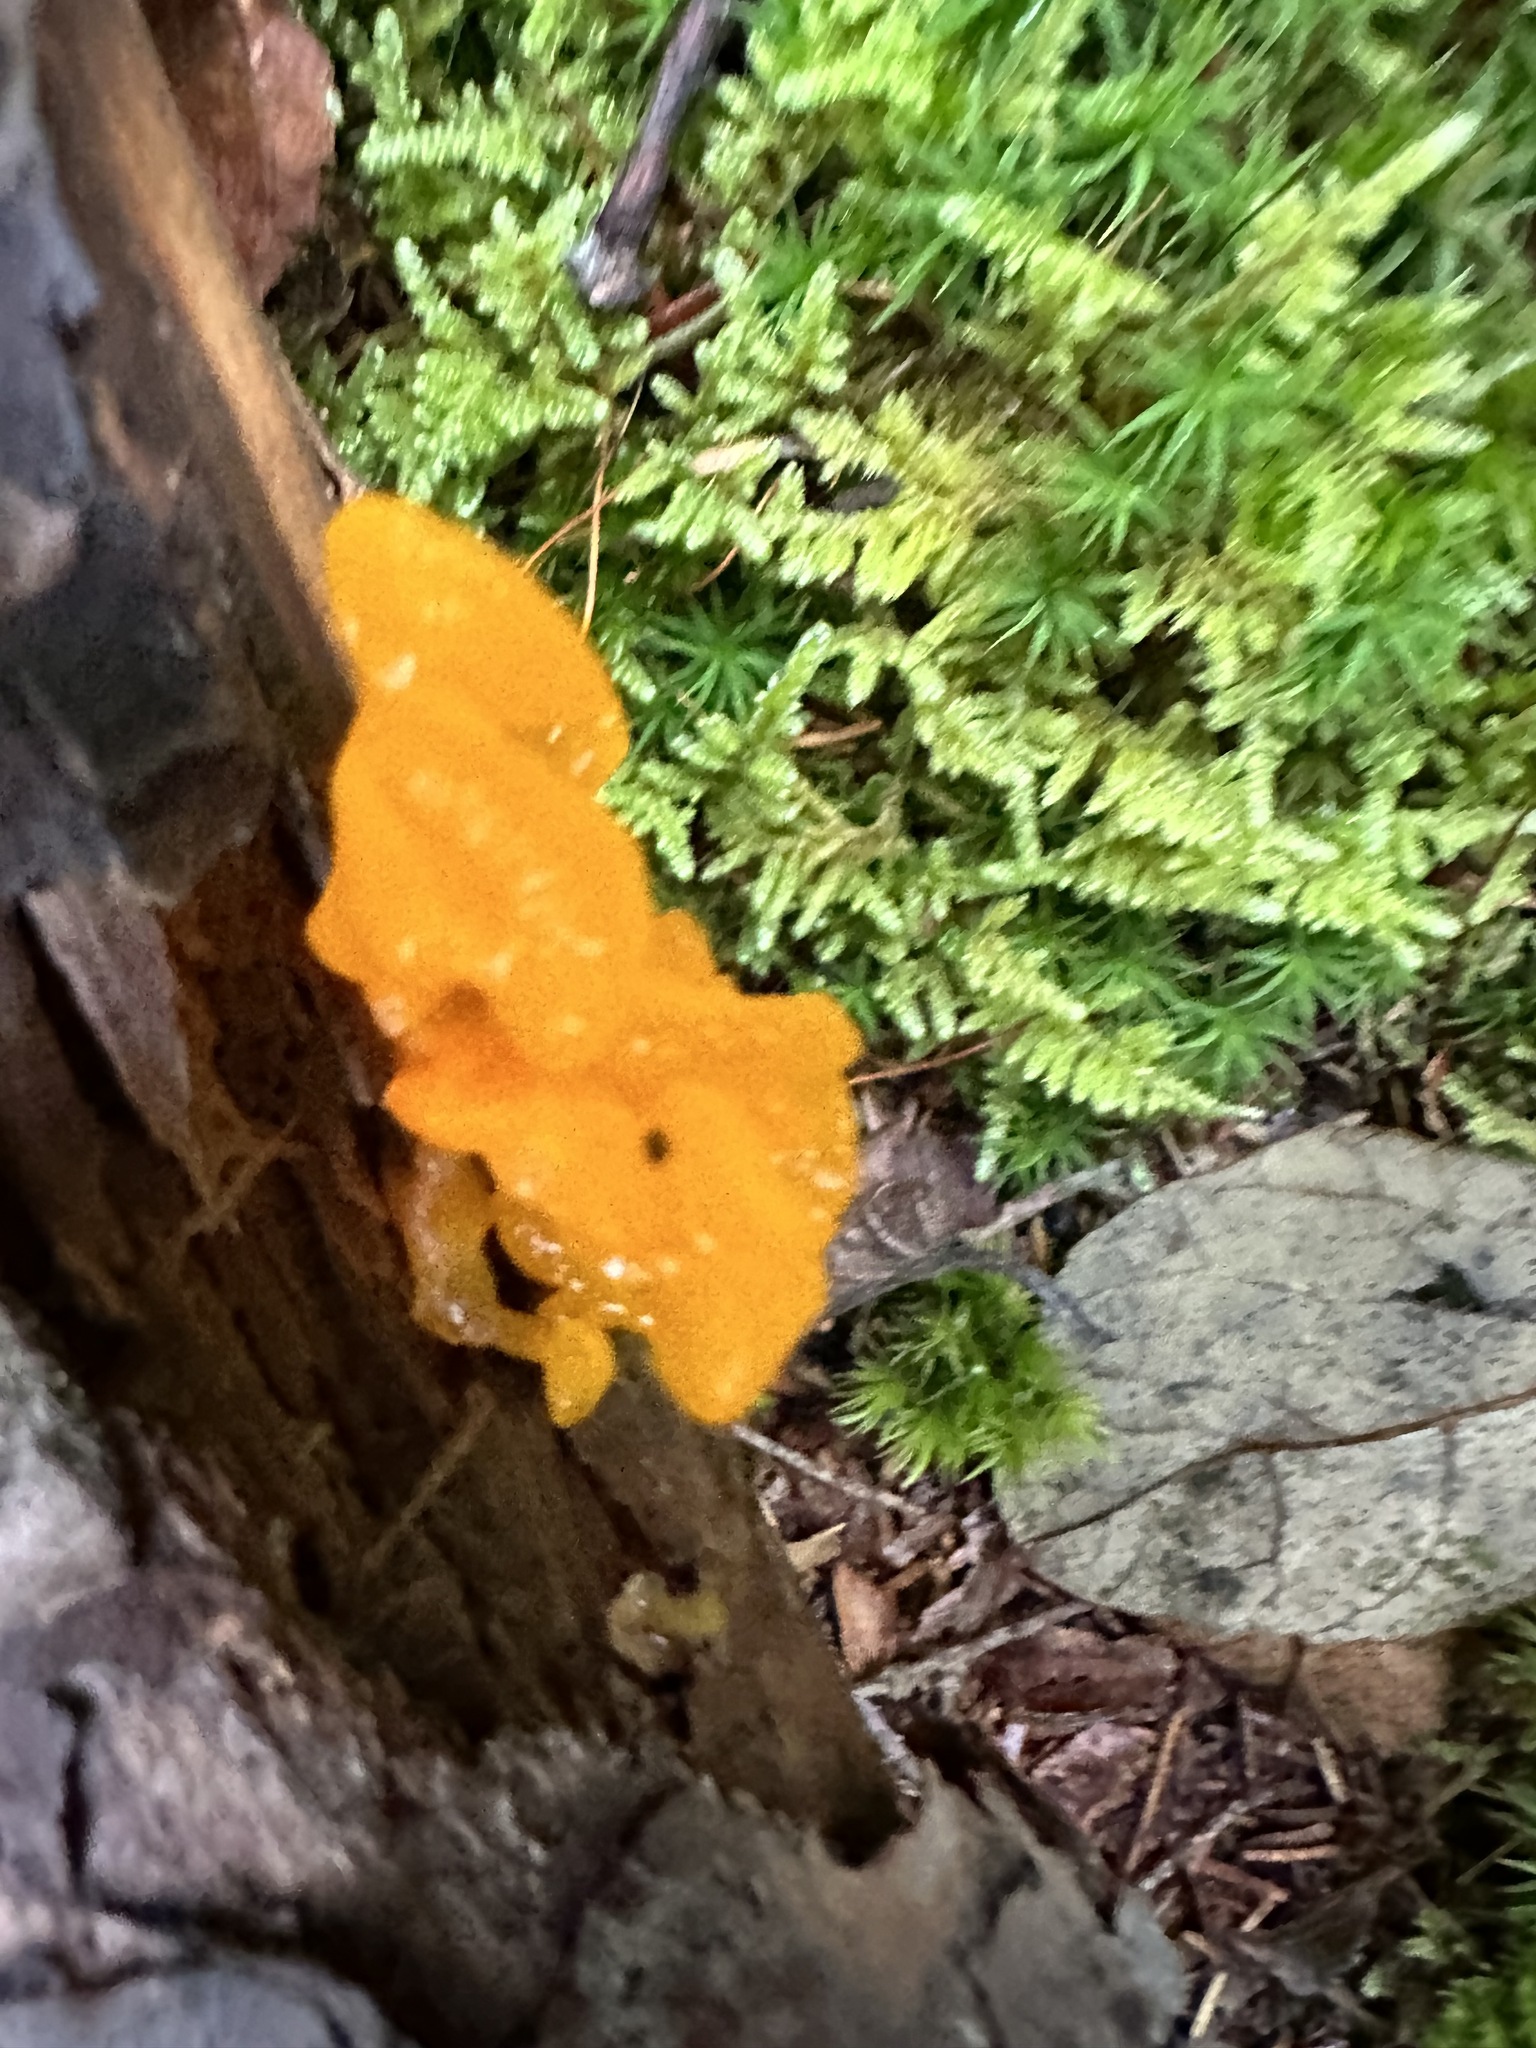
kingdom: Fungi
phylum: Basidiomycota
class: Dacrymycetes
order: Dacrymycetales
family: Dacrymycetaceae
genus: Dacrymyces
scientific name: Dacrymyces chrysospermus
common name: Orange jelly spot
